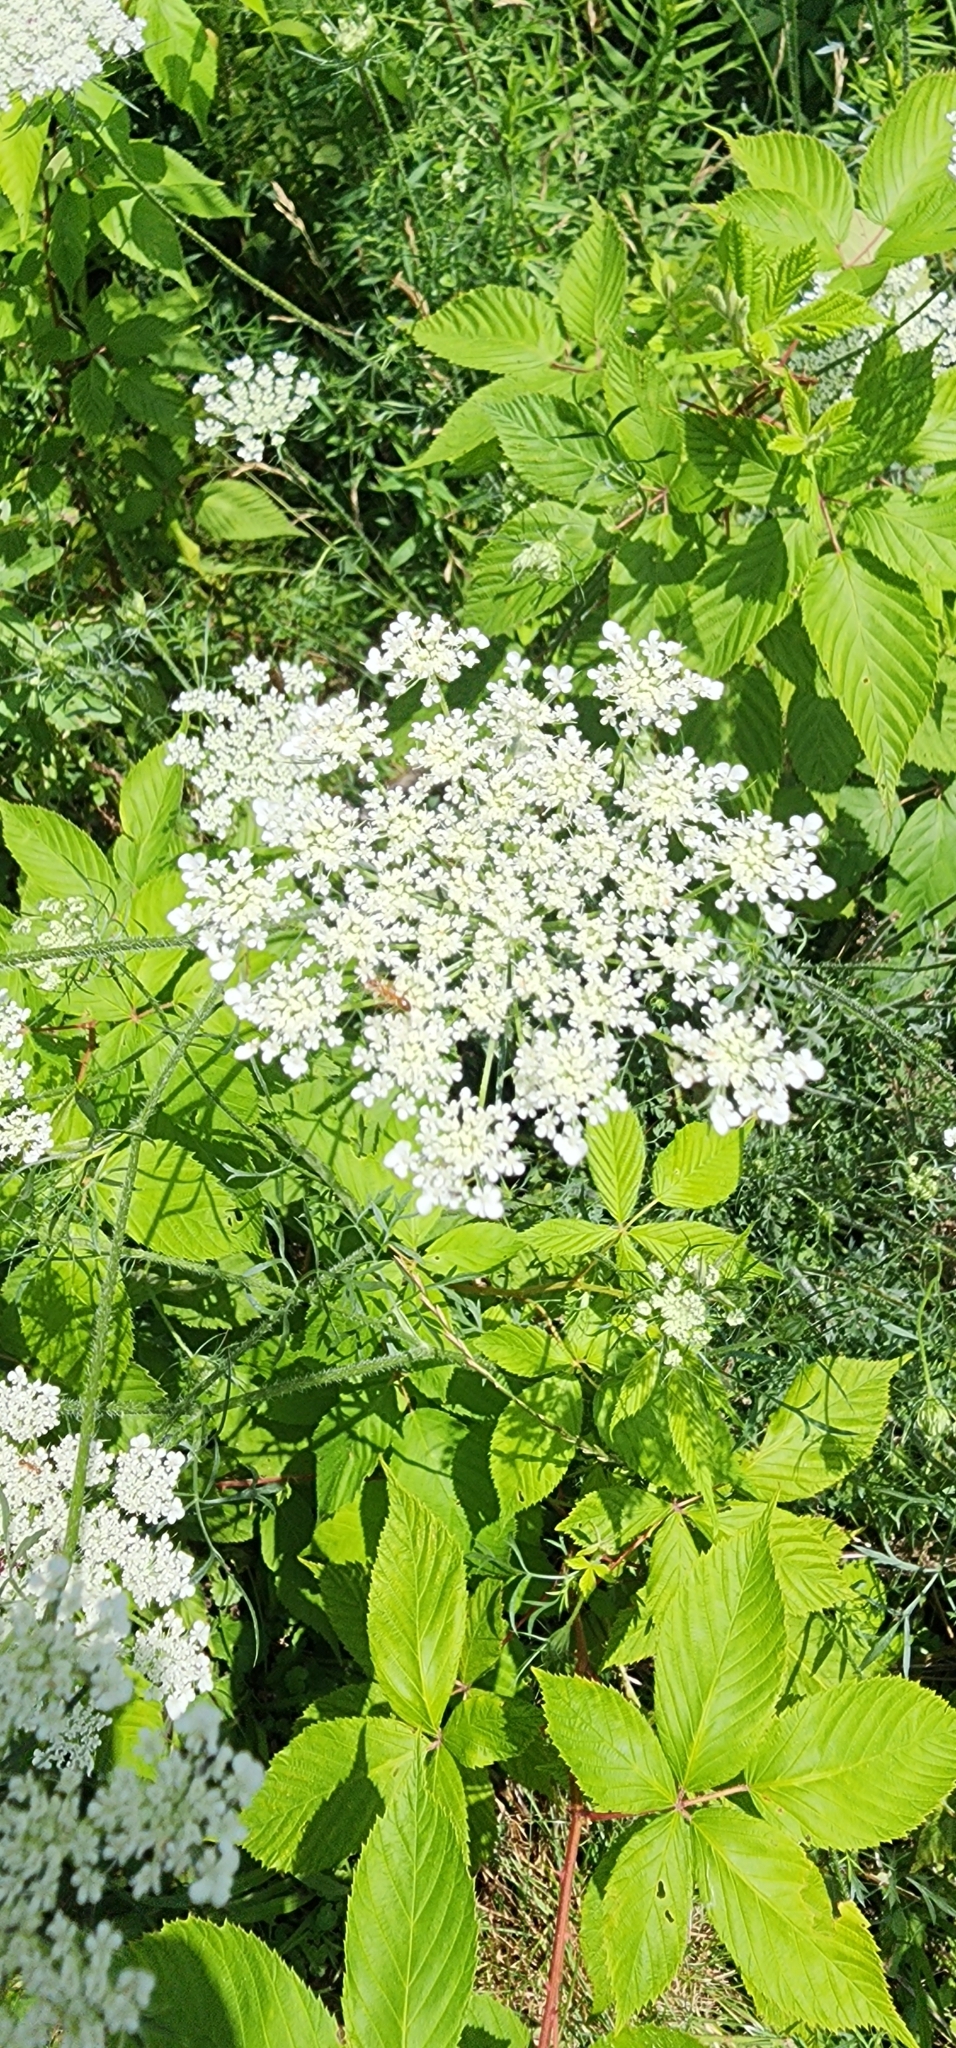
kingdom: Plantae
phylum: Tracheophyta
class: Magnoliopsida
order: Apiales
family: Apiaceae
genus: Daucus
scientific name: Daucus carota
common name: Wild carrot
